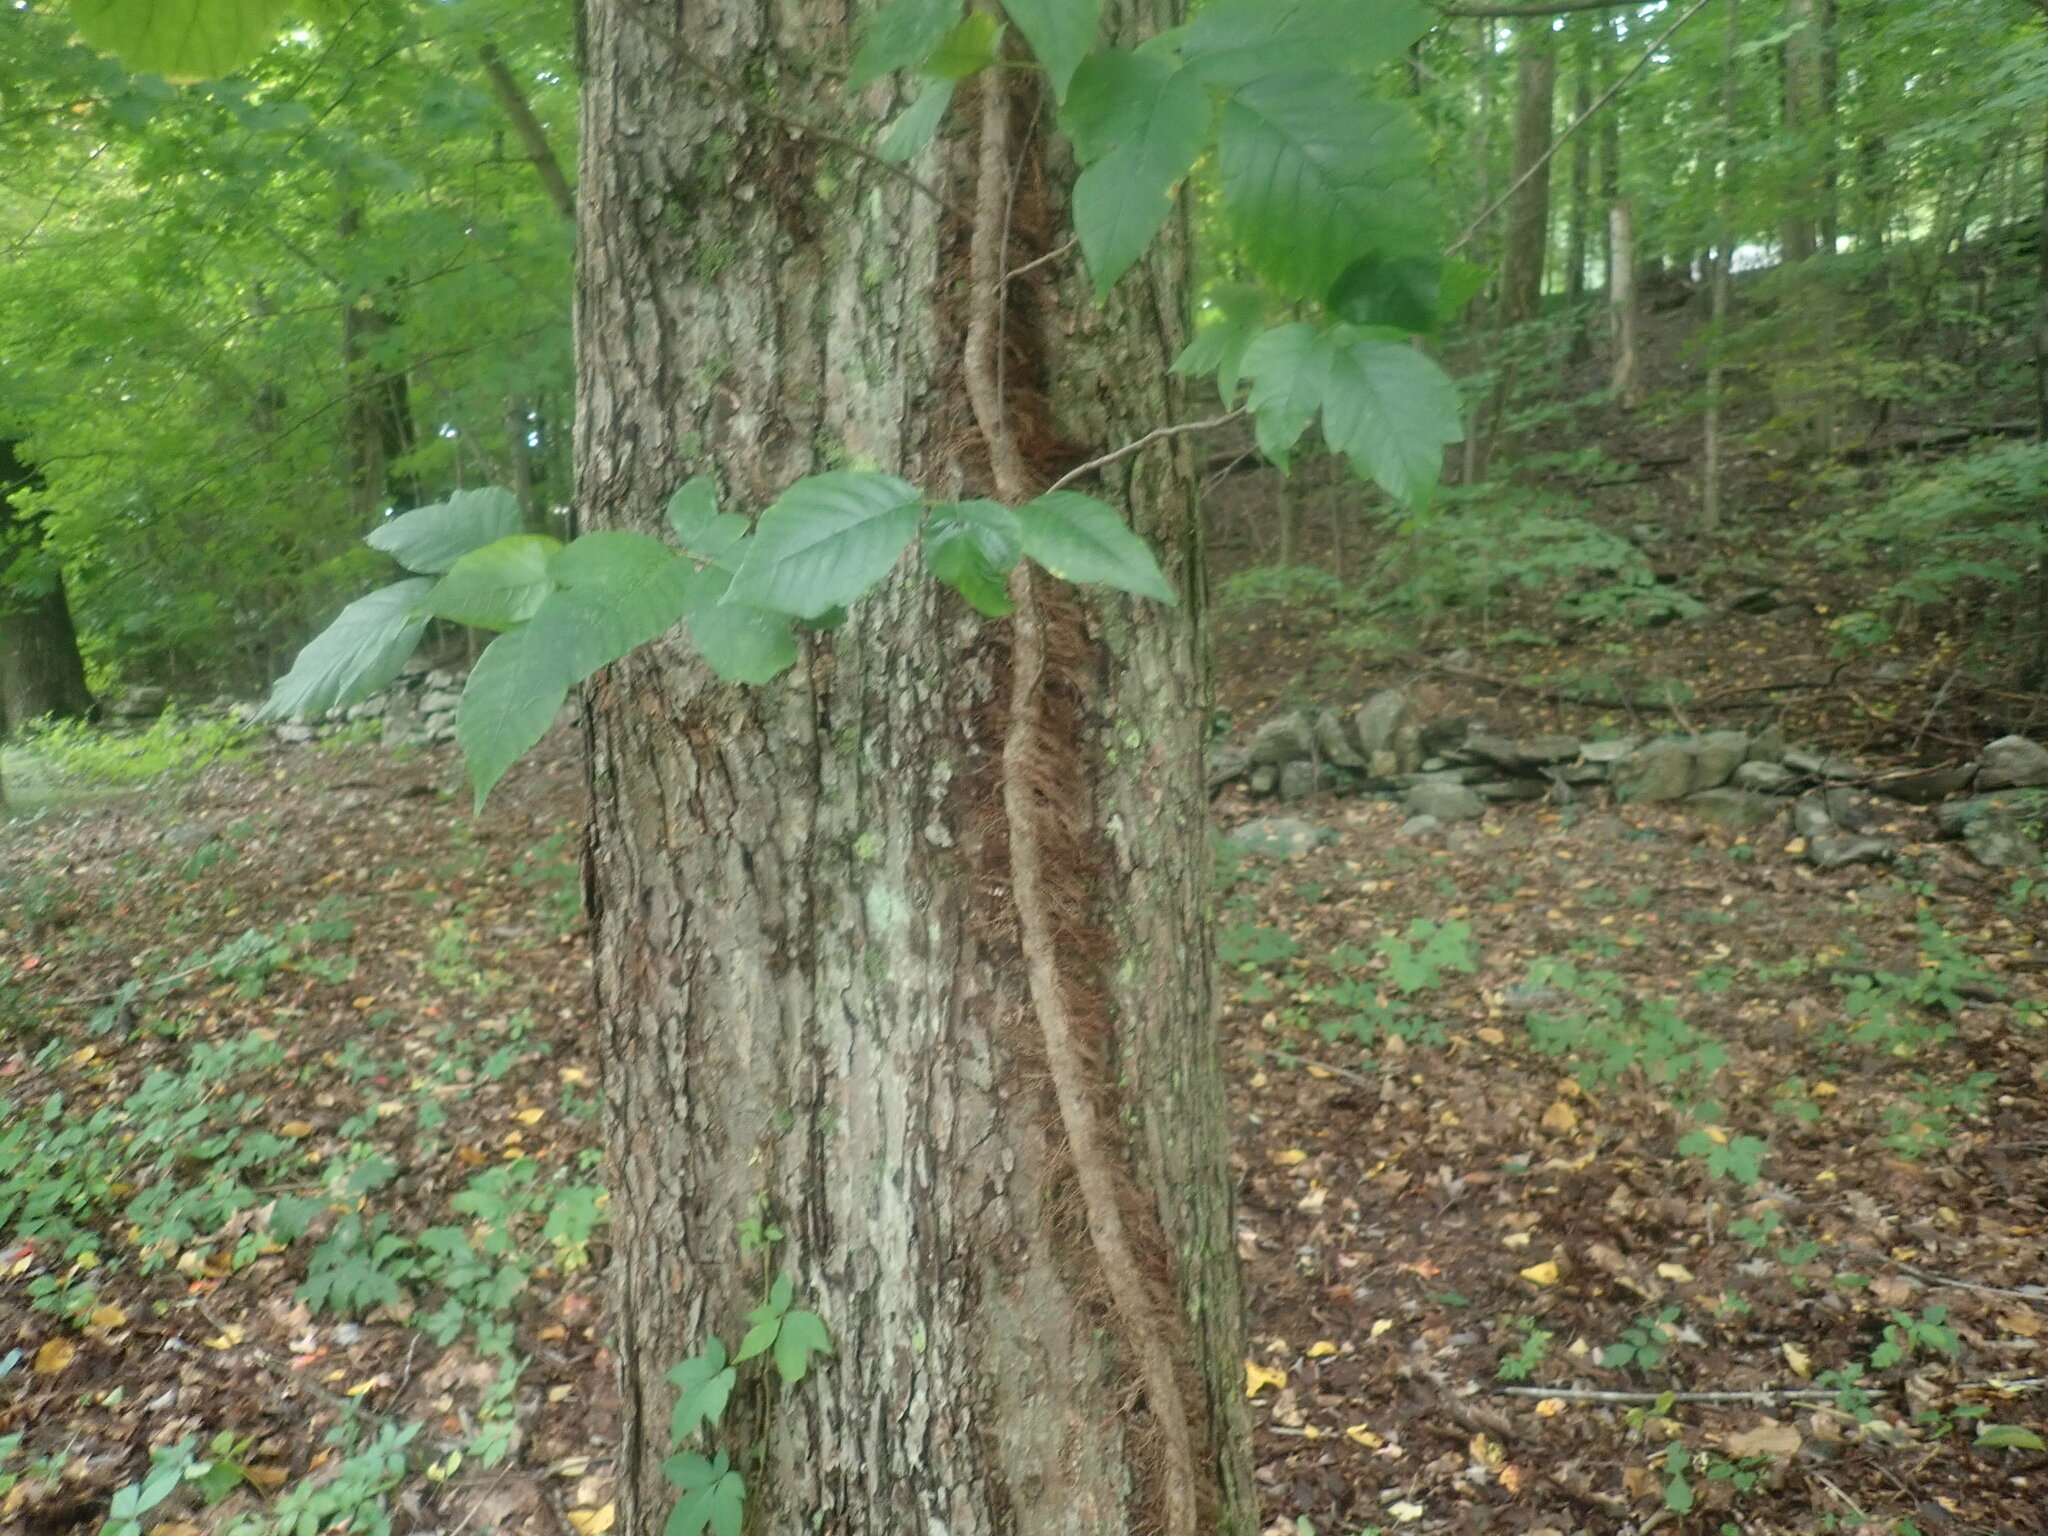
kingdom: Plantae
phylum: Tracheophyta
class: Magnoliopsida
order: Sapindales
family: Anacardiaceae
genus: Toxicodendron
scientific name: Toxicodendron radicans
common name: Poison ivy
